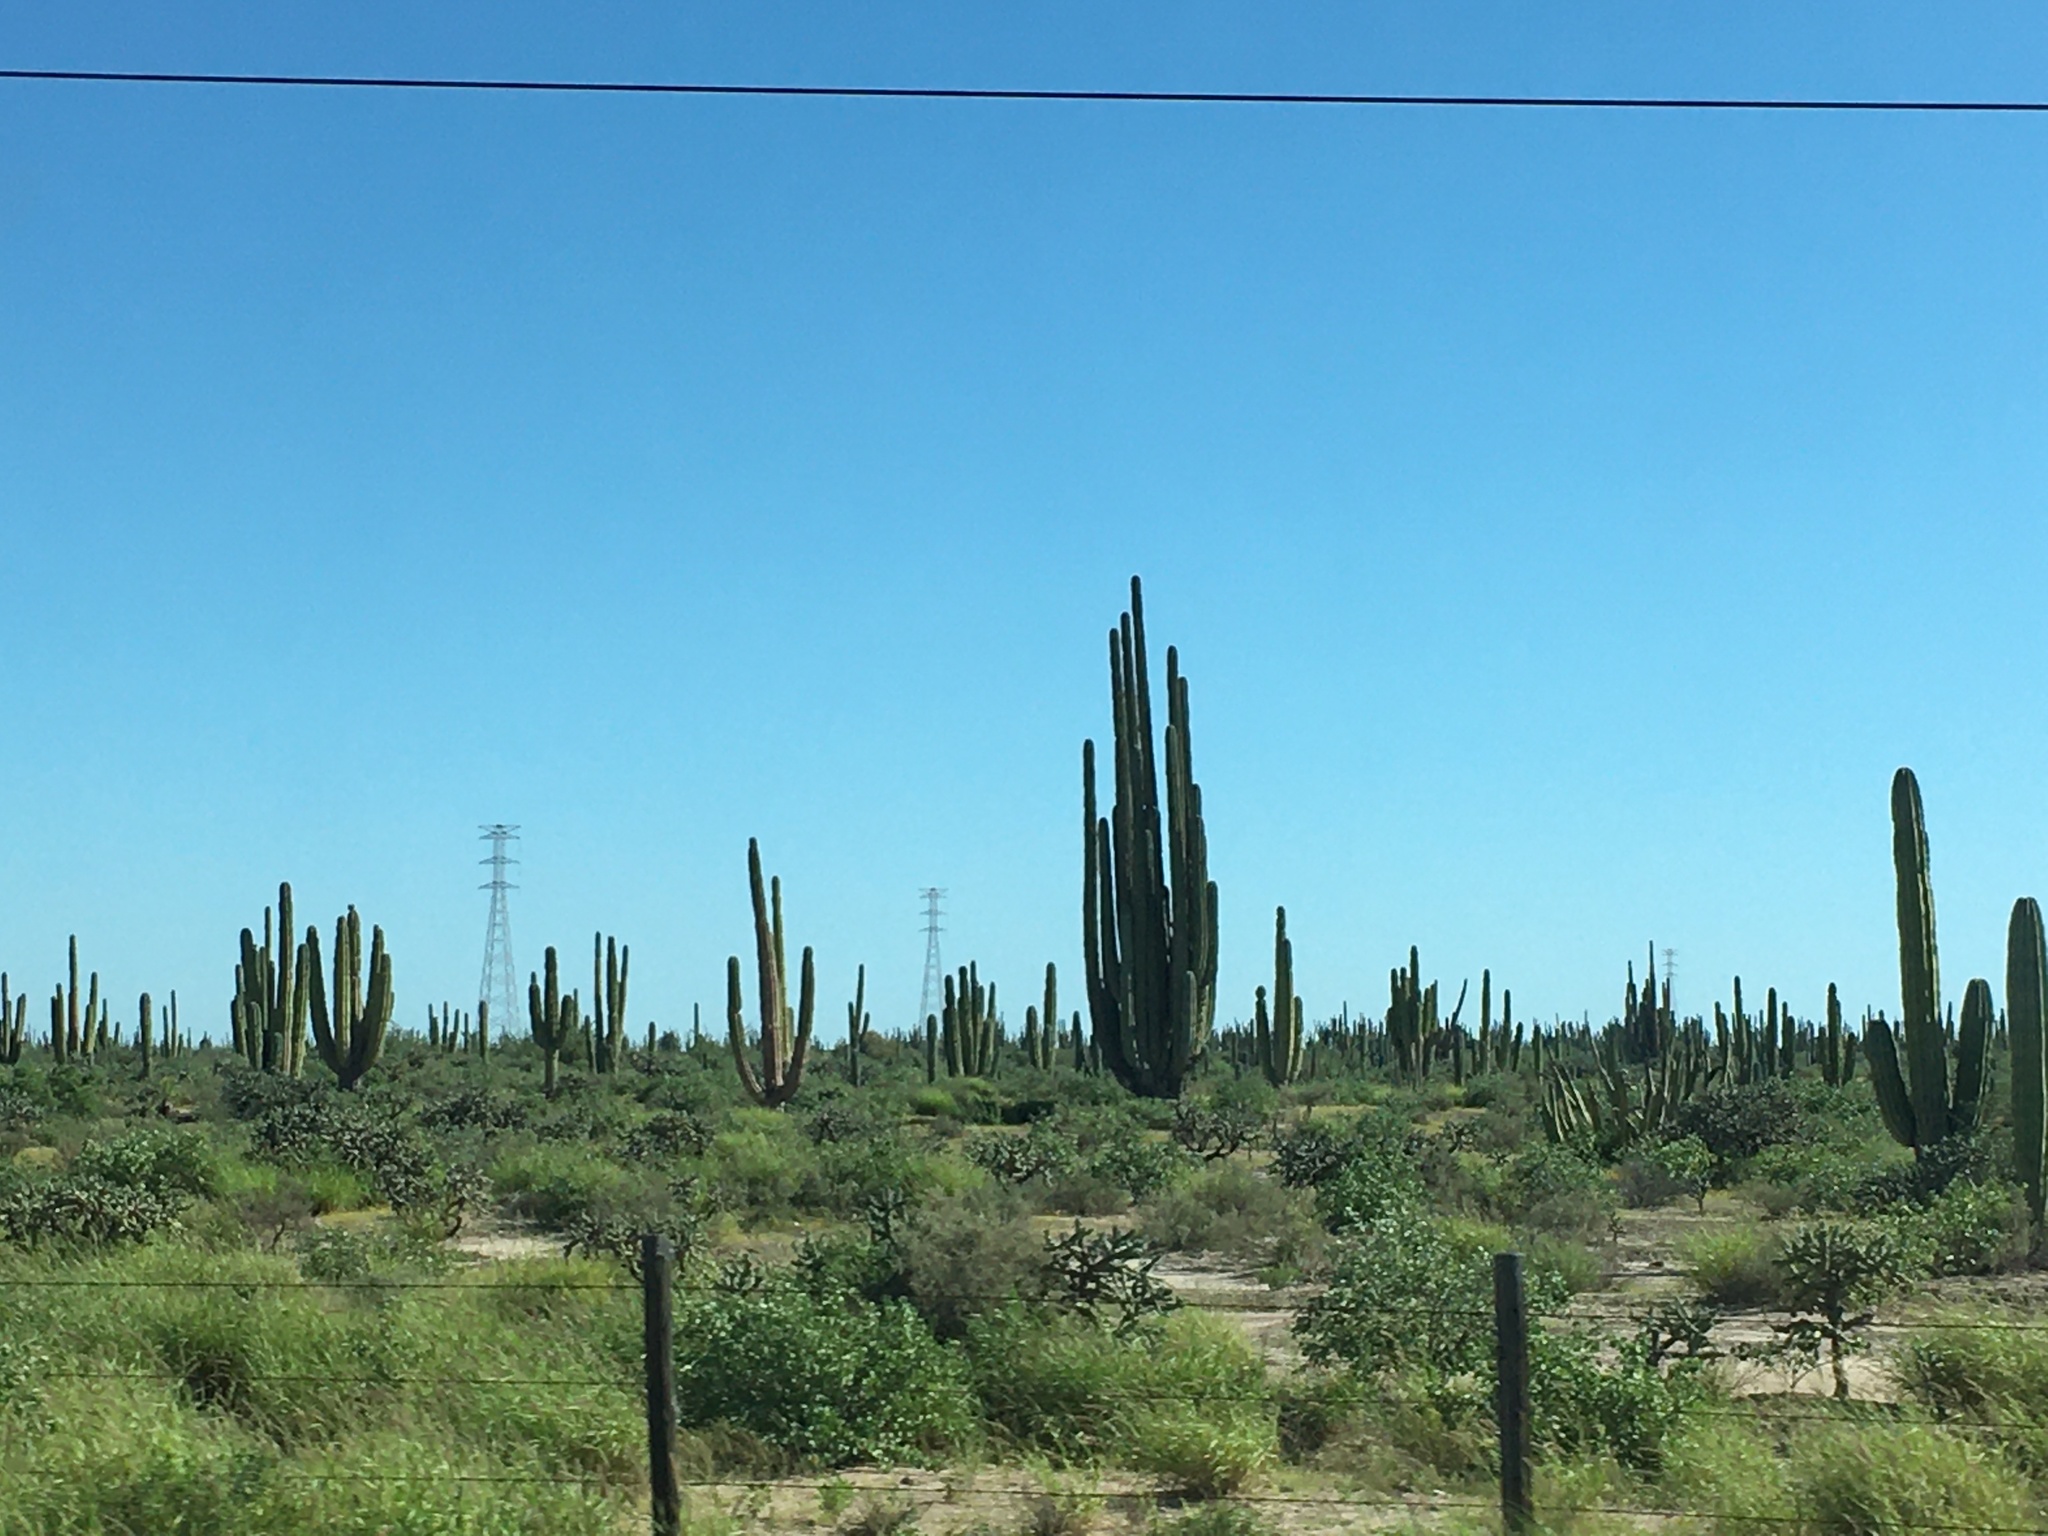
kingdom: Plantae
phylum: Tracheophyta
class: Magnoliopsida
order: Caryophyllales
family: Cactaceae
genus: Pachycereus
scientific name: Pachycereus pringlei
